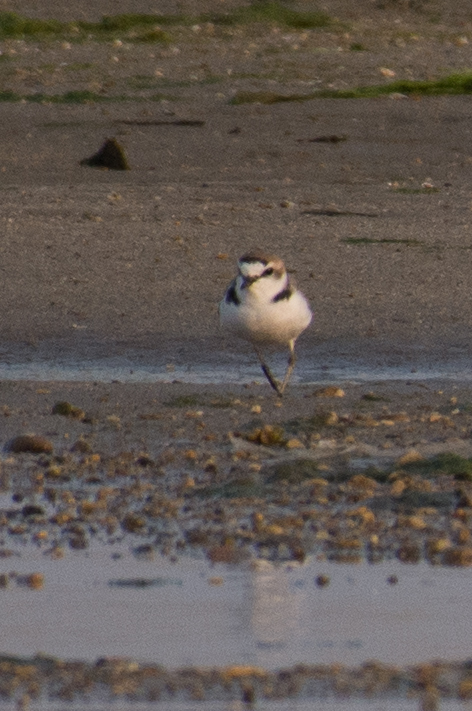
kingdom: Animalia
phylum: Chordata
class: Aves
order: Charadriiformes
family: Charadriidae
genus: Charadrius
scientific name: Charadrius alexandrinus
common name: Kentish plover
